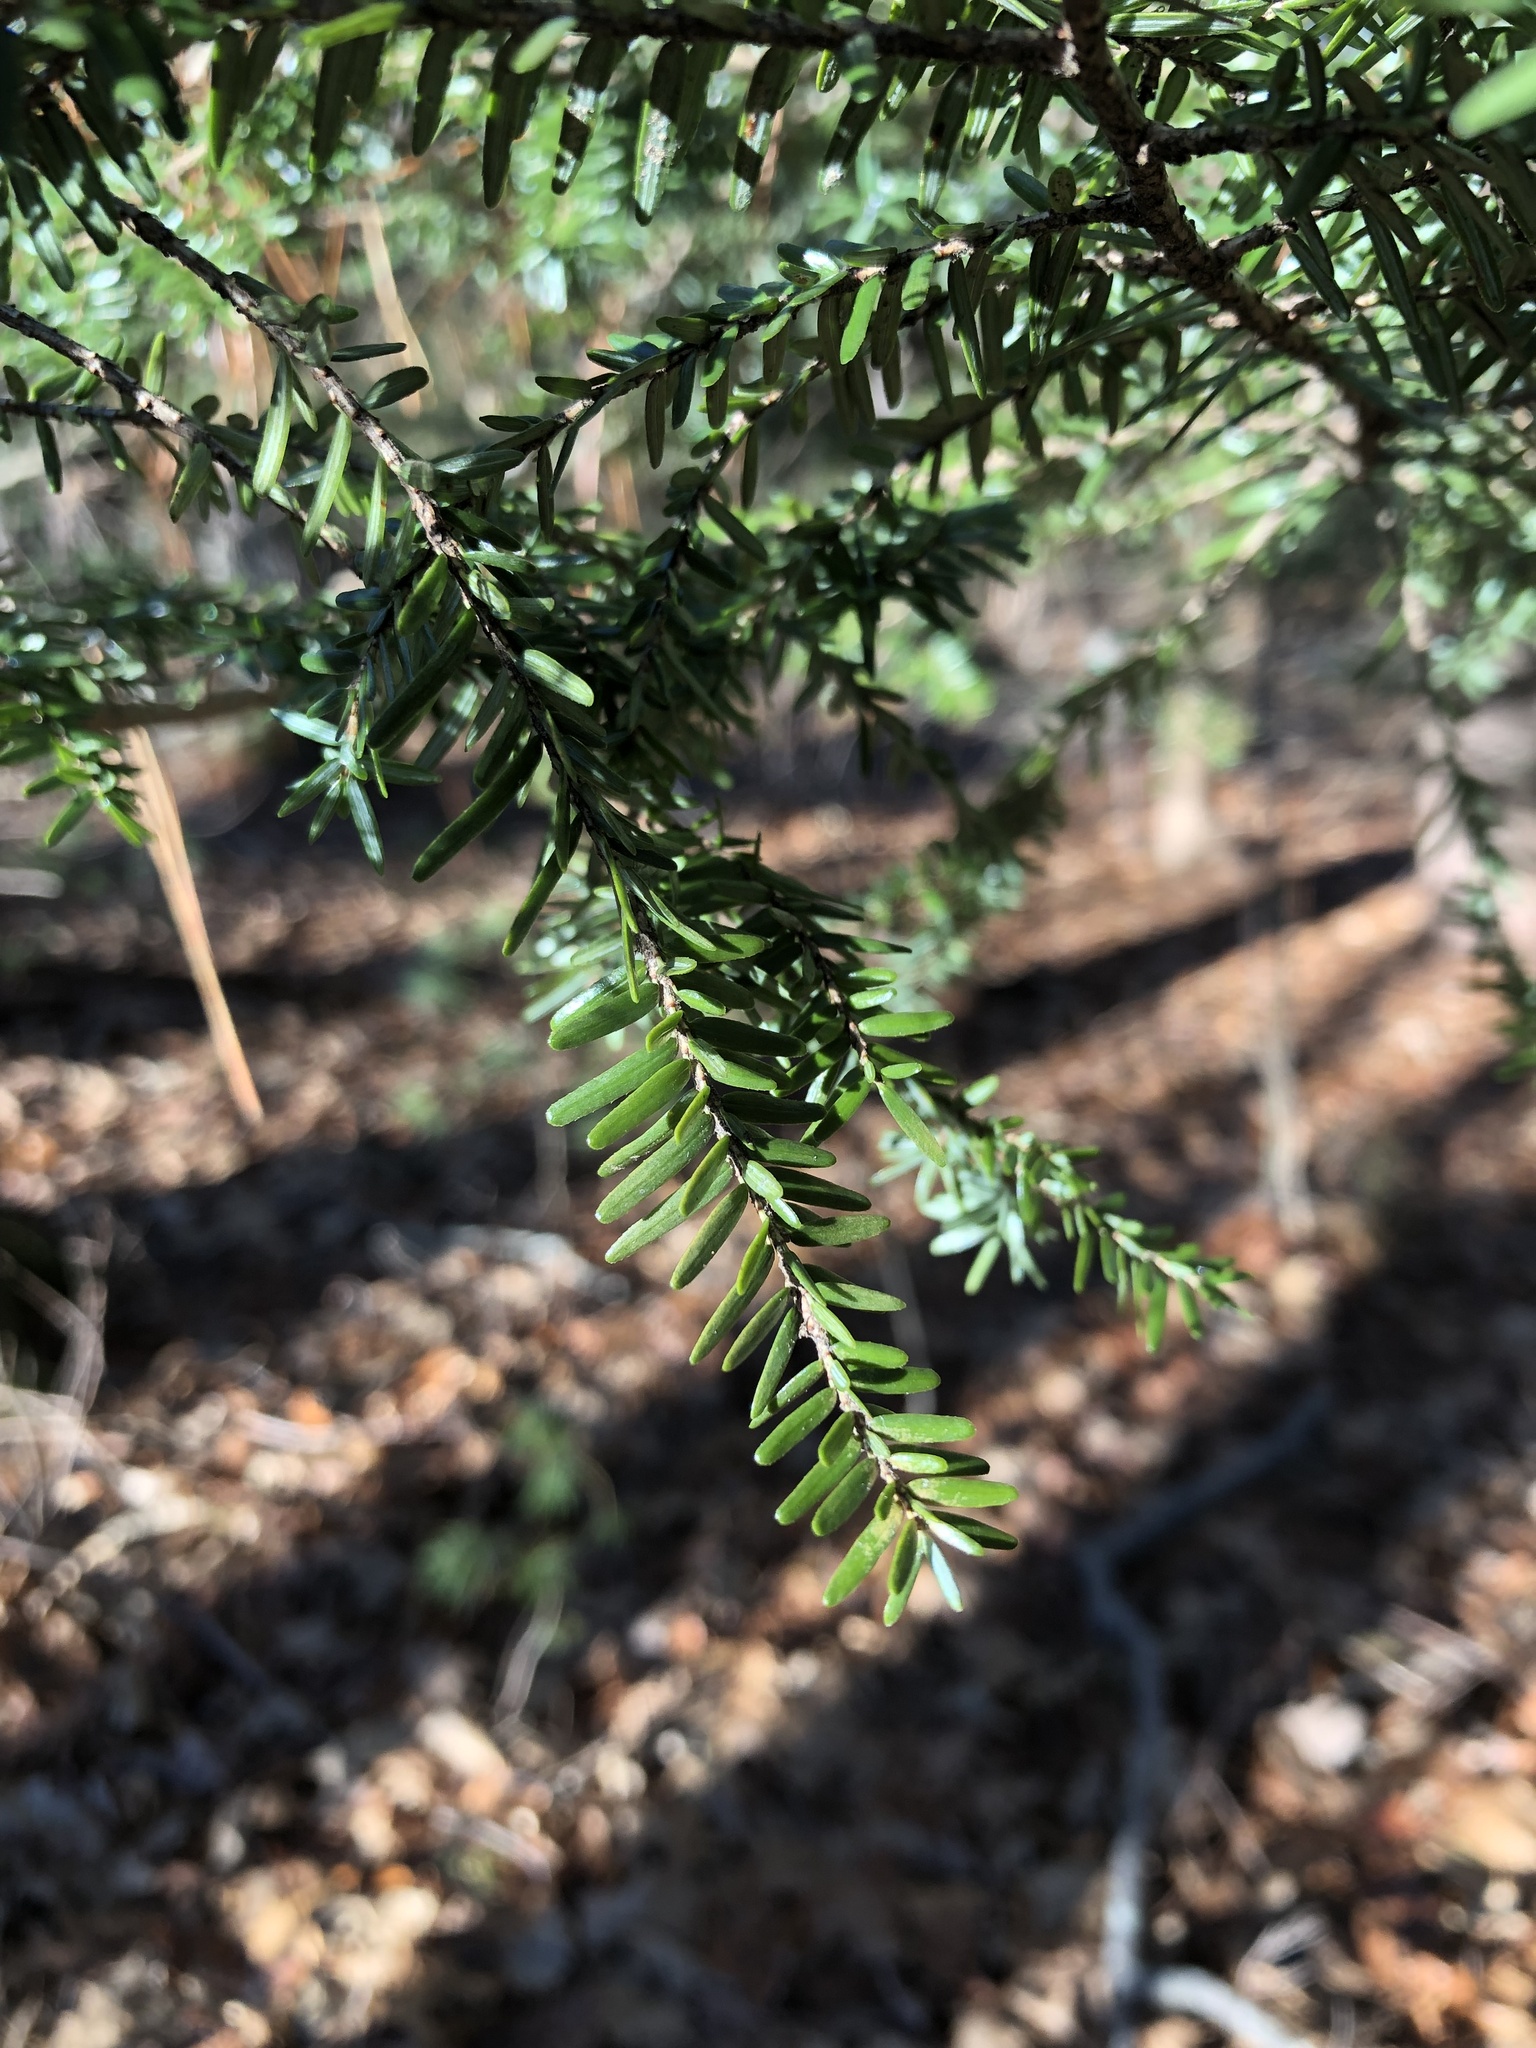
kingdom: Plantae
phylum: Tracheophyta
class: Pinopsida
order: Pinales
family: Pinaceae
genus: Tsuga
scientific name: Tsuga canadensis
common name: Eastern hemlock
